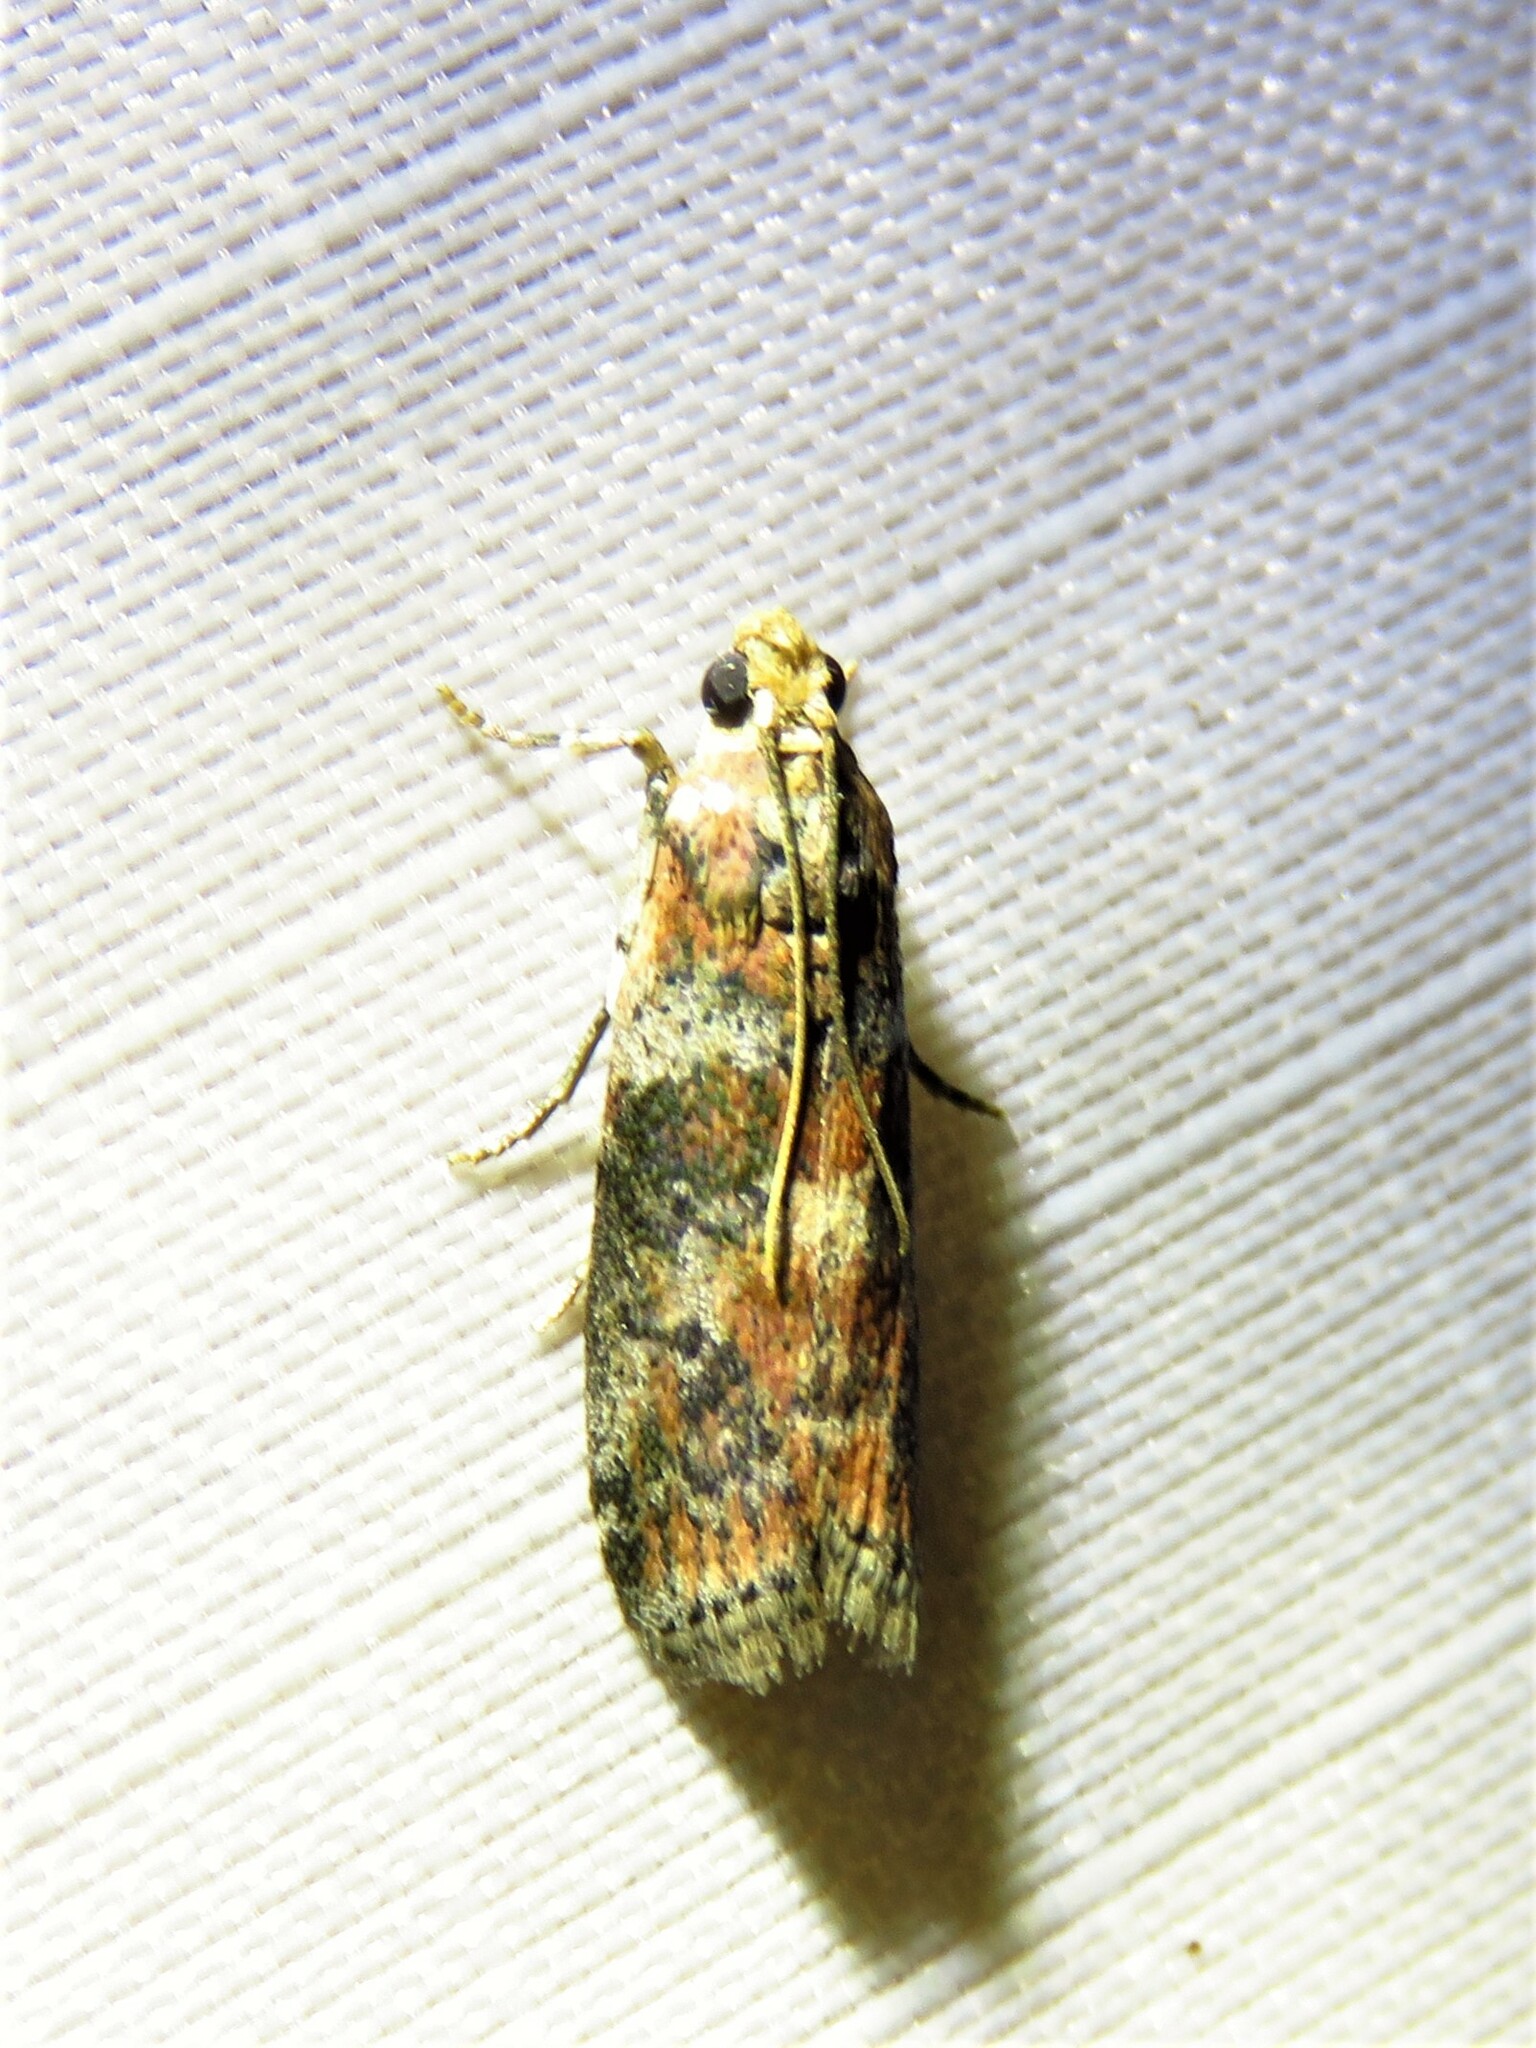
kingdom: Animalia
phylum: Arthropoda
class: Insecta
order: Lepidoptera
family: Pyralidae
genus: Sciota
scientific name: Sciota
